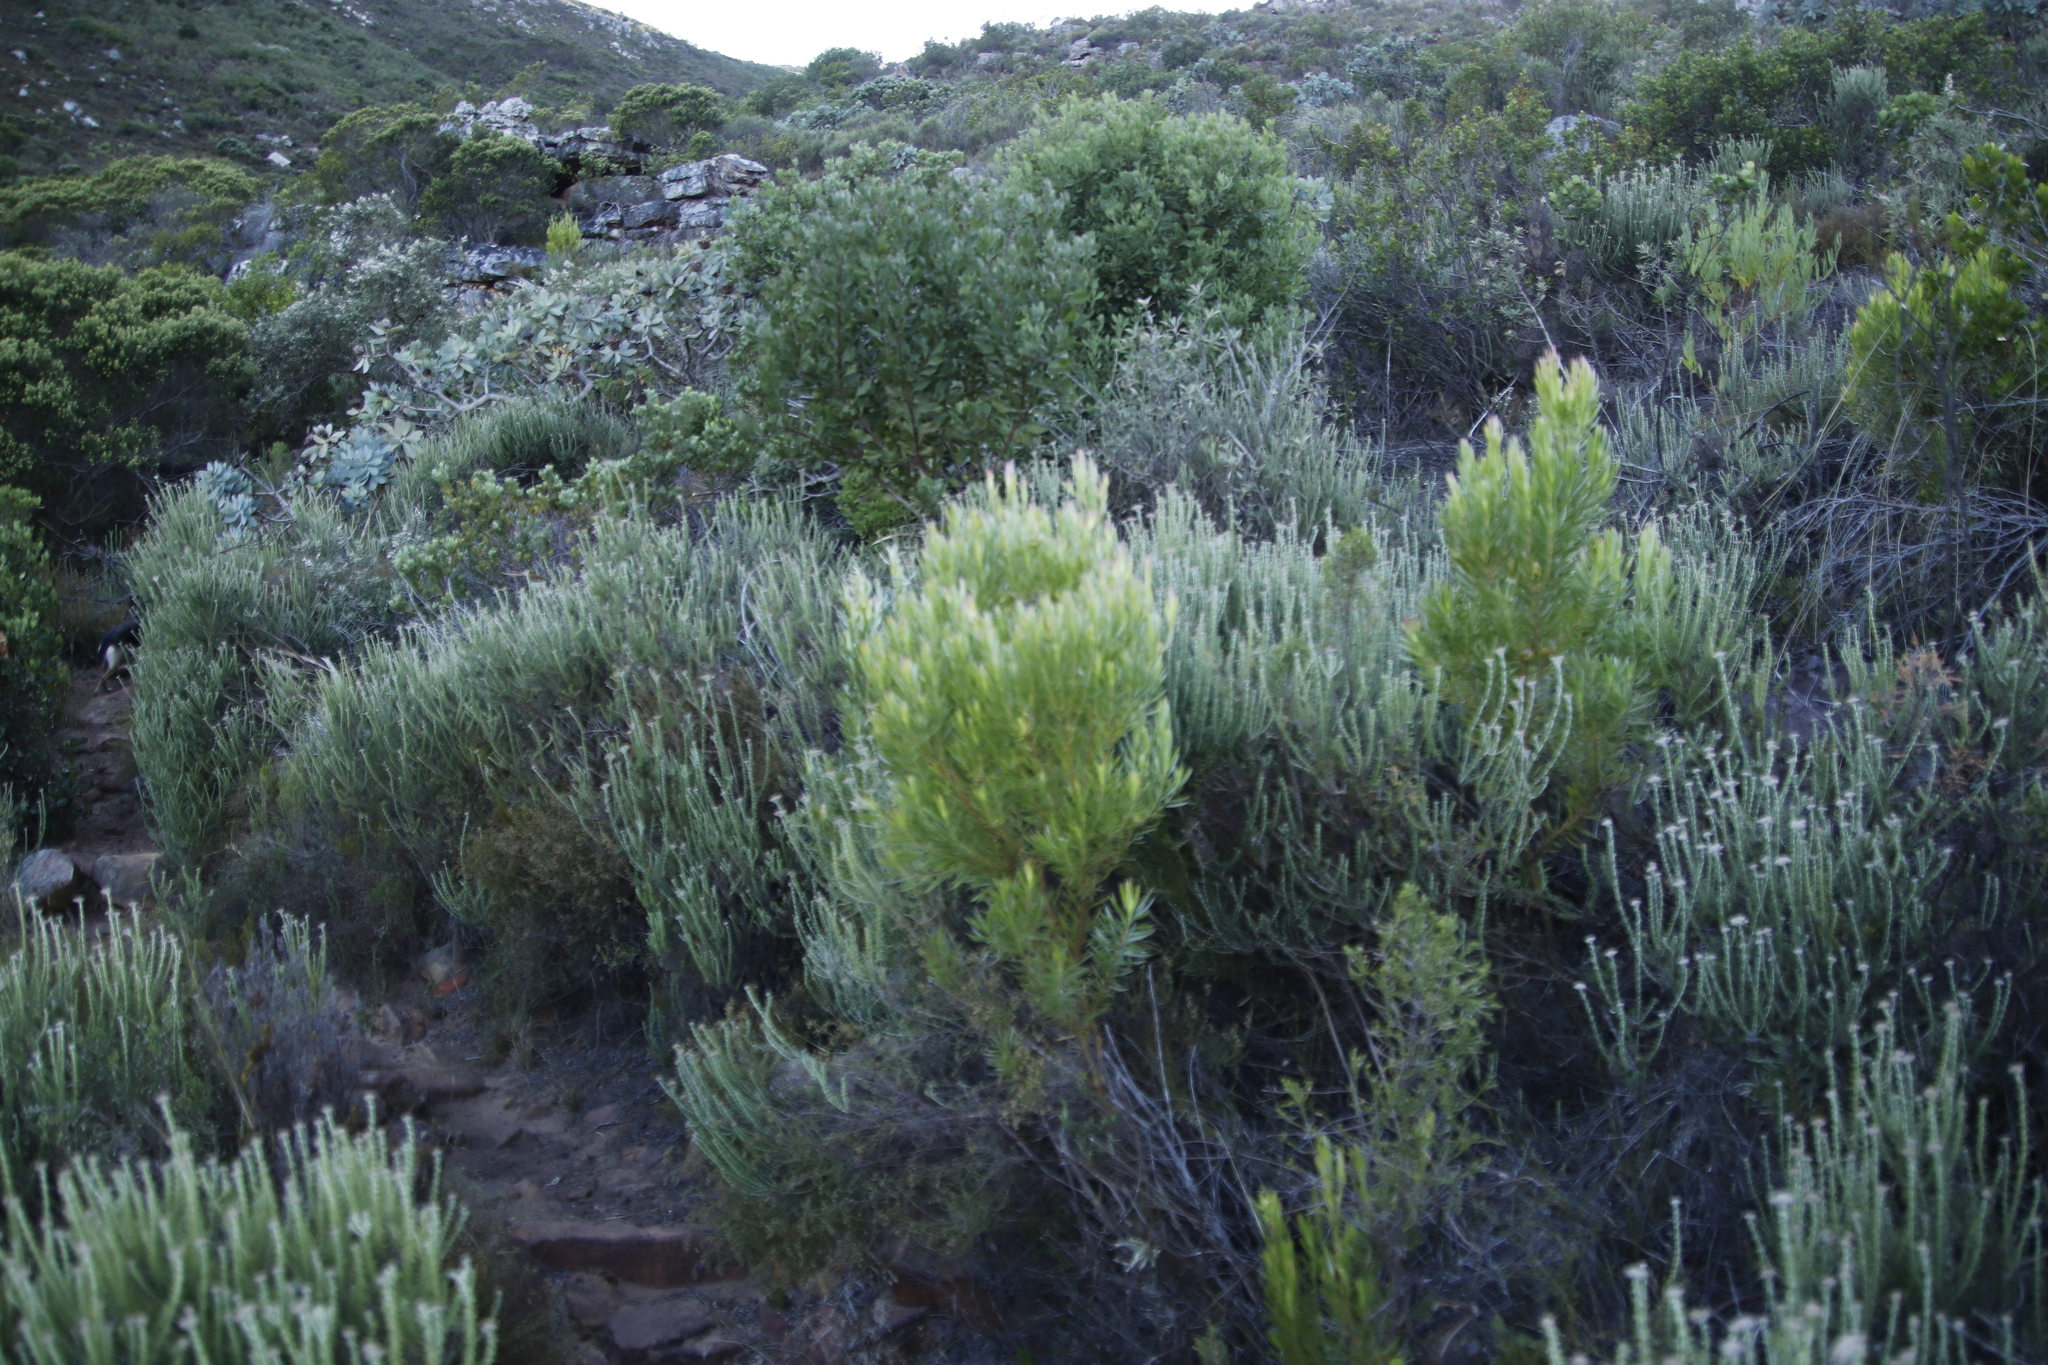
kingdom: Plantae
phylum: Tracheophyta
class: Magnoliopsida
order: Proteales
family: Proteaceae
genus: Leucadendron
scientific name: Leucadendron xanthoconus
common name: Sickle-leaf conebush
